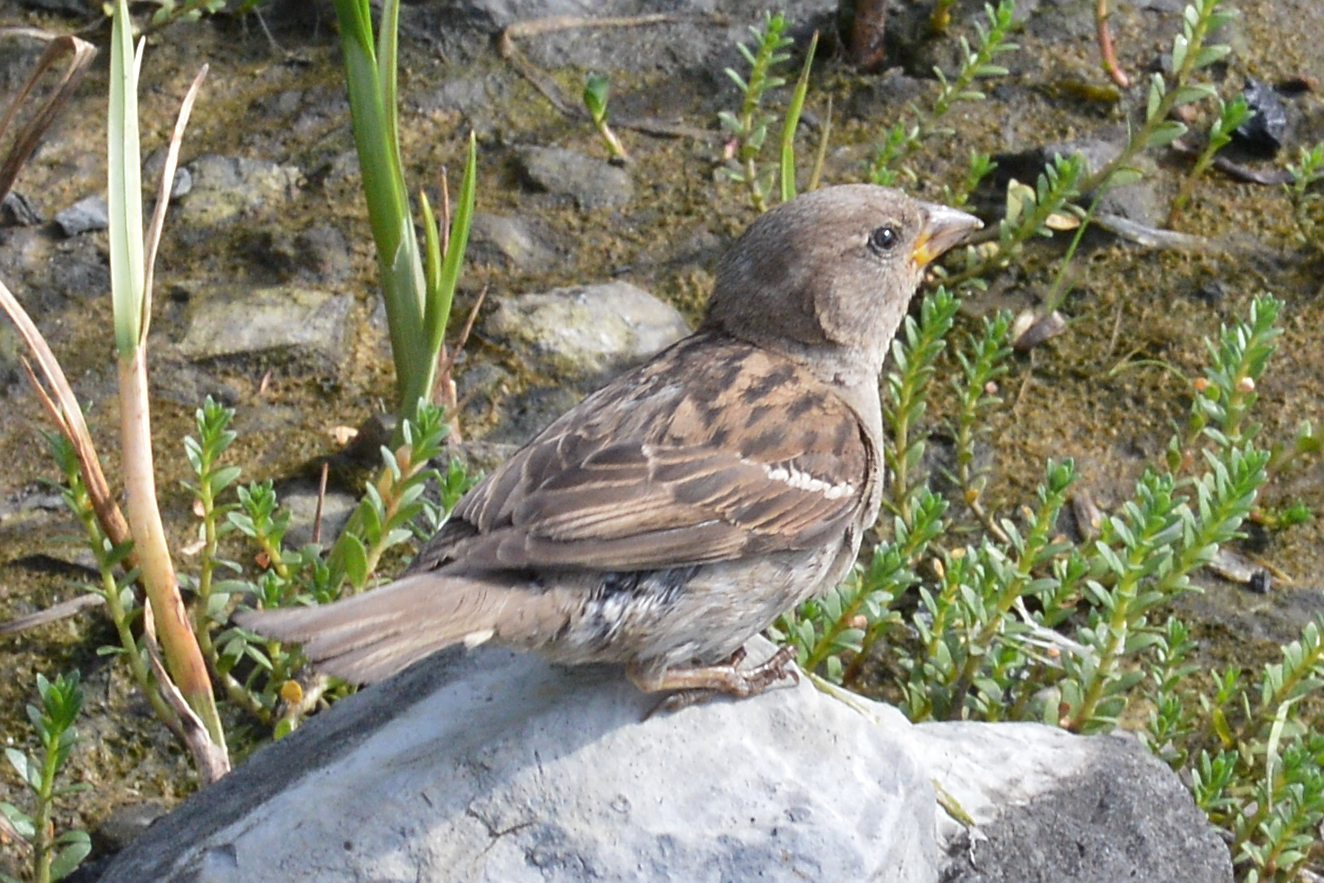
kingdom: Animalia
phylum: Chordata
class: Aves
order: Passeriformes
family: Passeridae
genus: Passer
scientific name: Passer domesticus
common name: House sparrow
